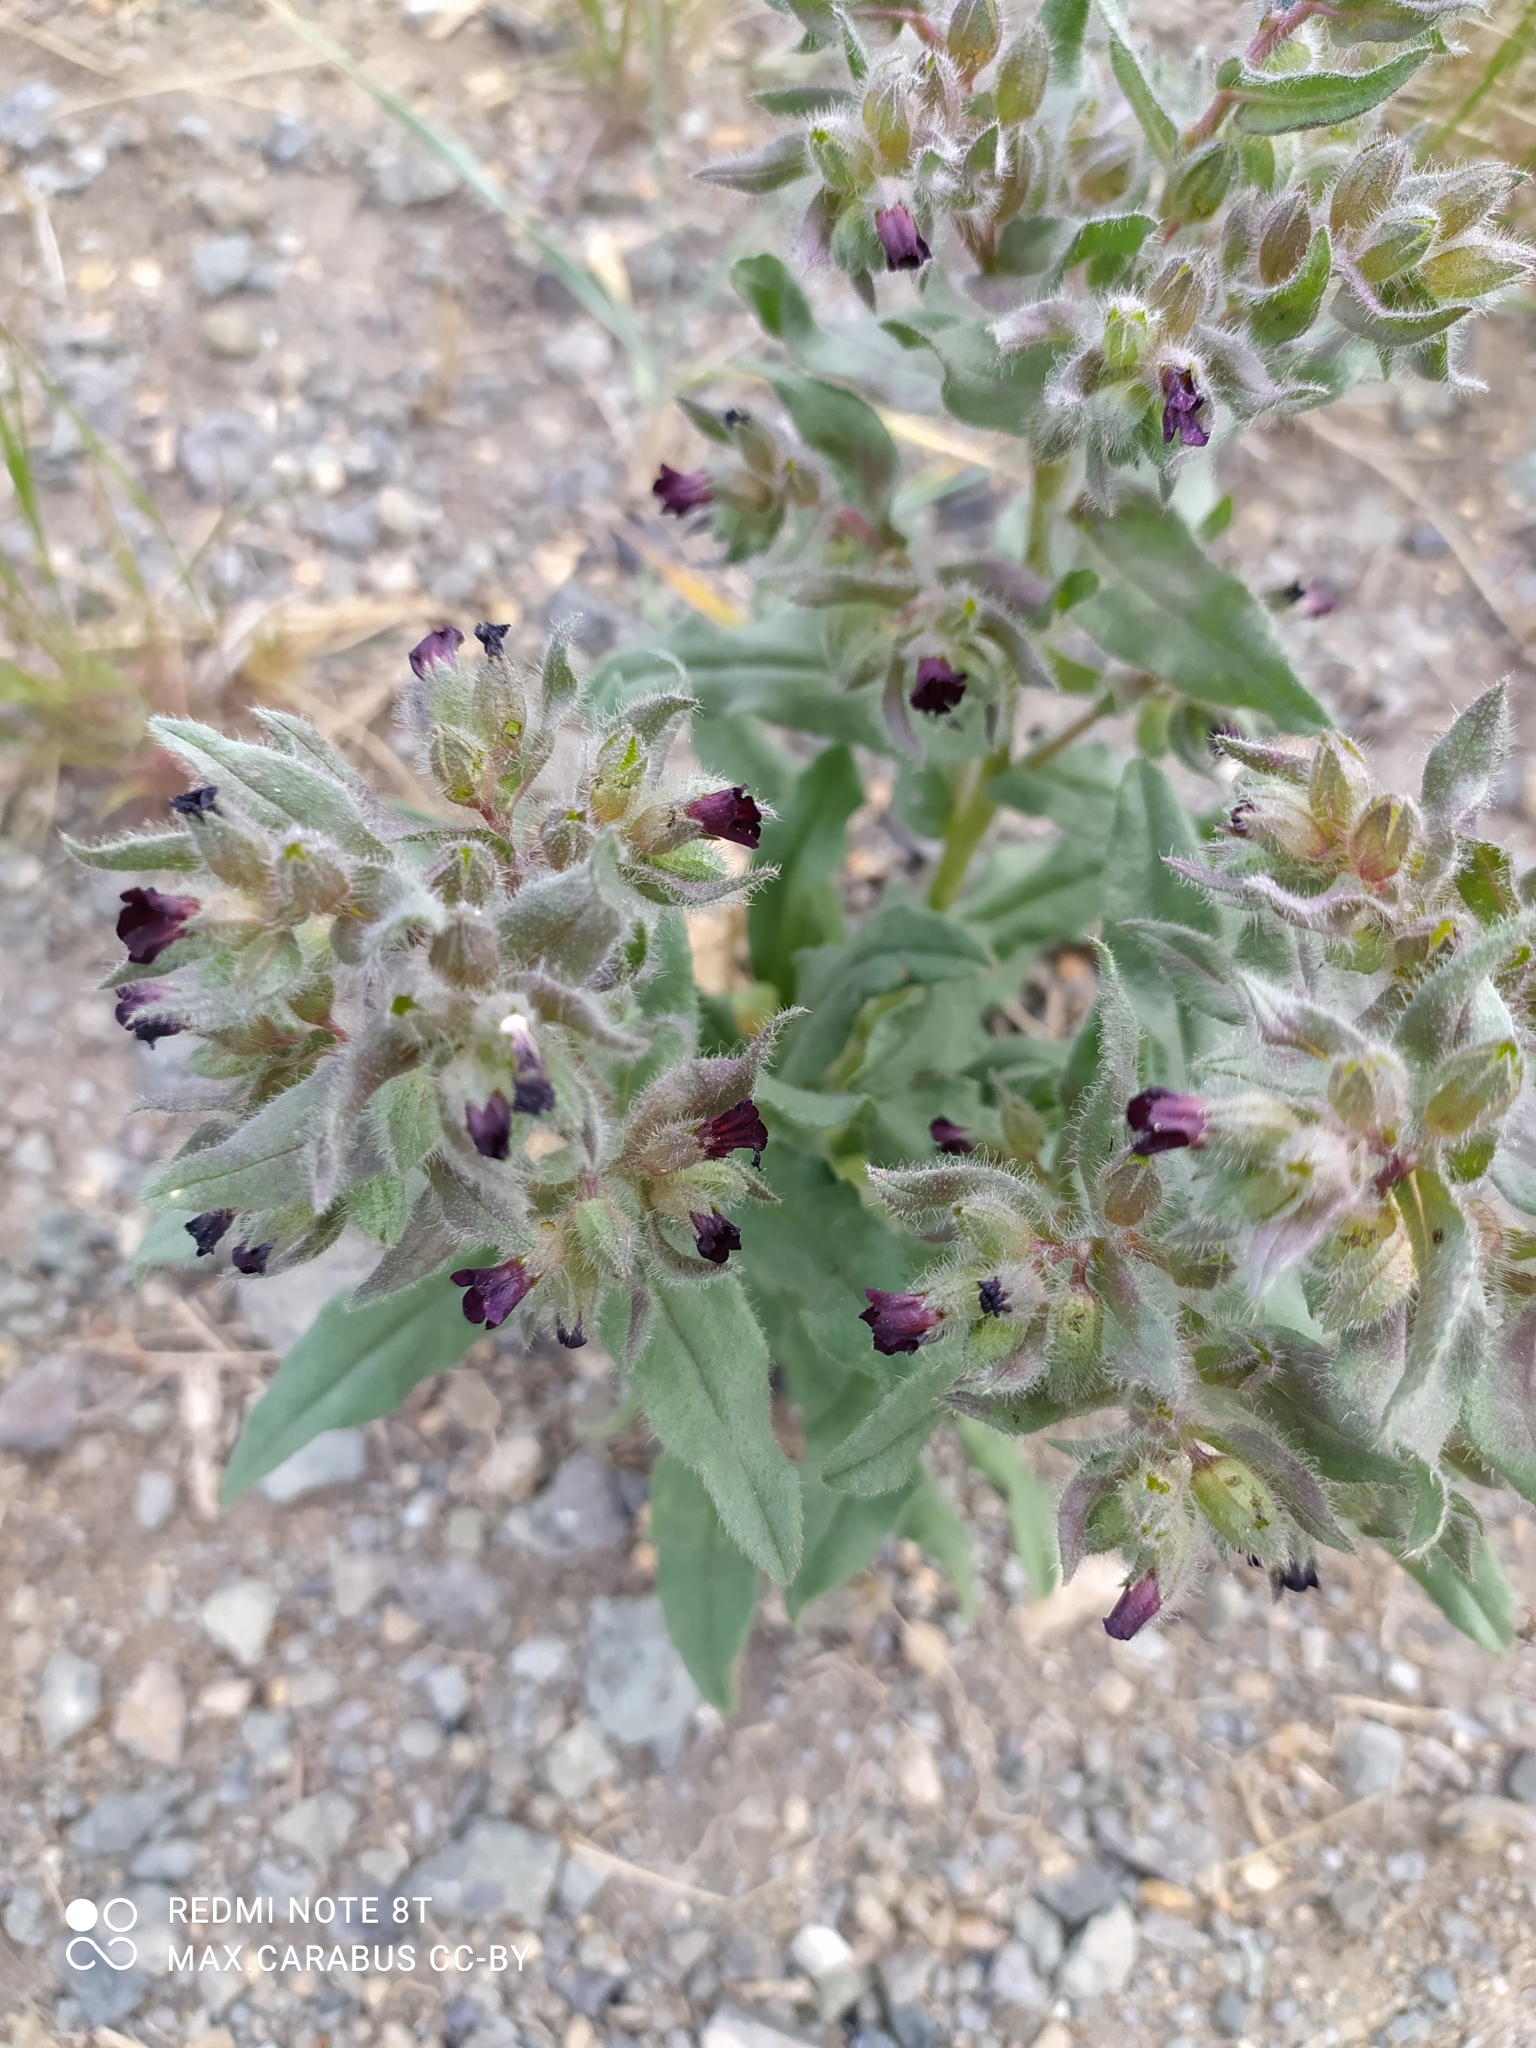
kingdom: Plantae
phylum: Tracheophyta
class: Magnoliopsida
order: Boraginales
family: Boraginaceae
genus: Nonea
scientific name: Nonea pulla
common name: Brown nonea
